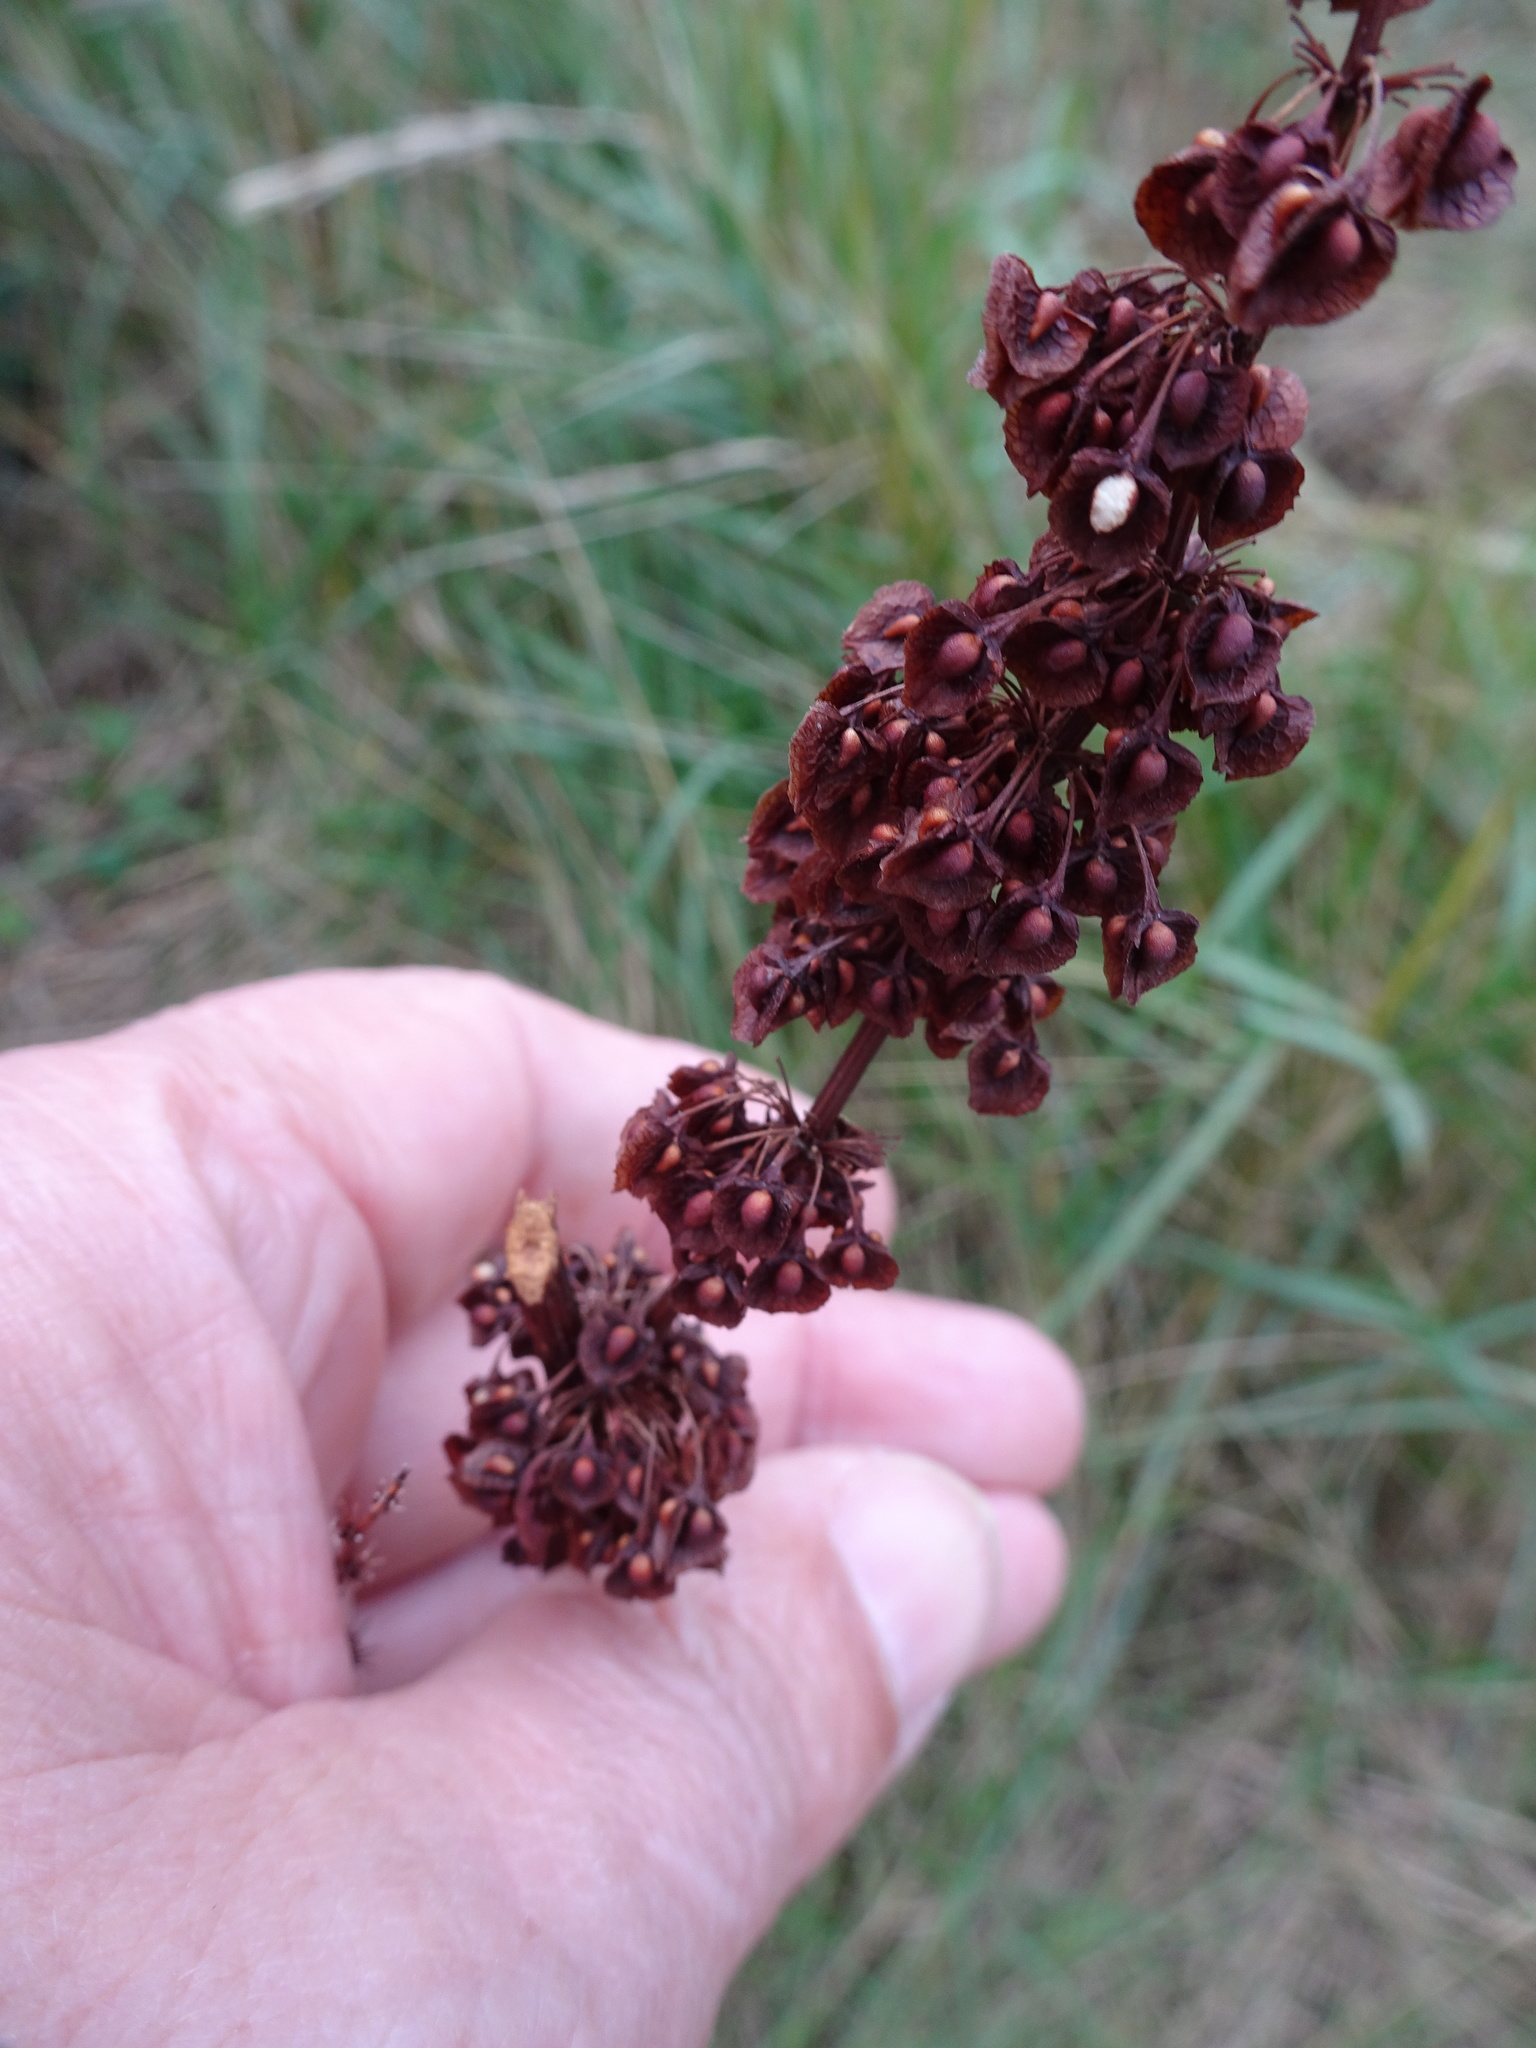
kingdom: Plantae
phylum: Tracheophyta
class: Magnoliopsida
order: Caryophyllales
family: Polygonaceae
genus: Rumex
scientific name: Rumex crispus
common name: Curled dock
